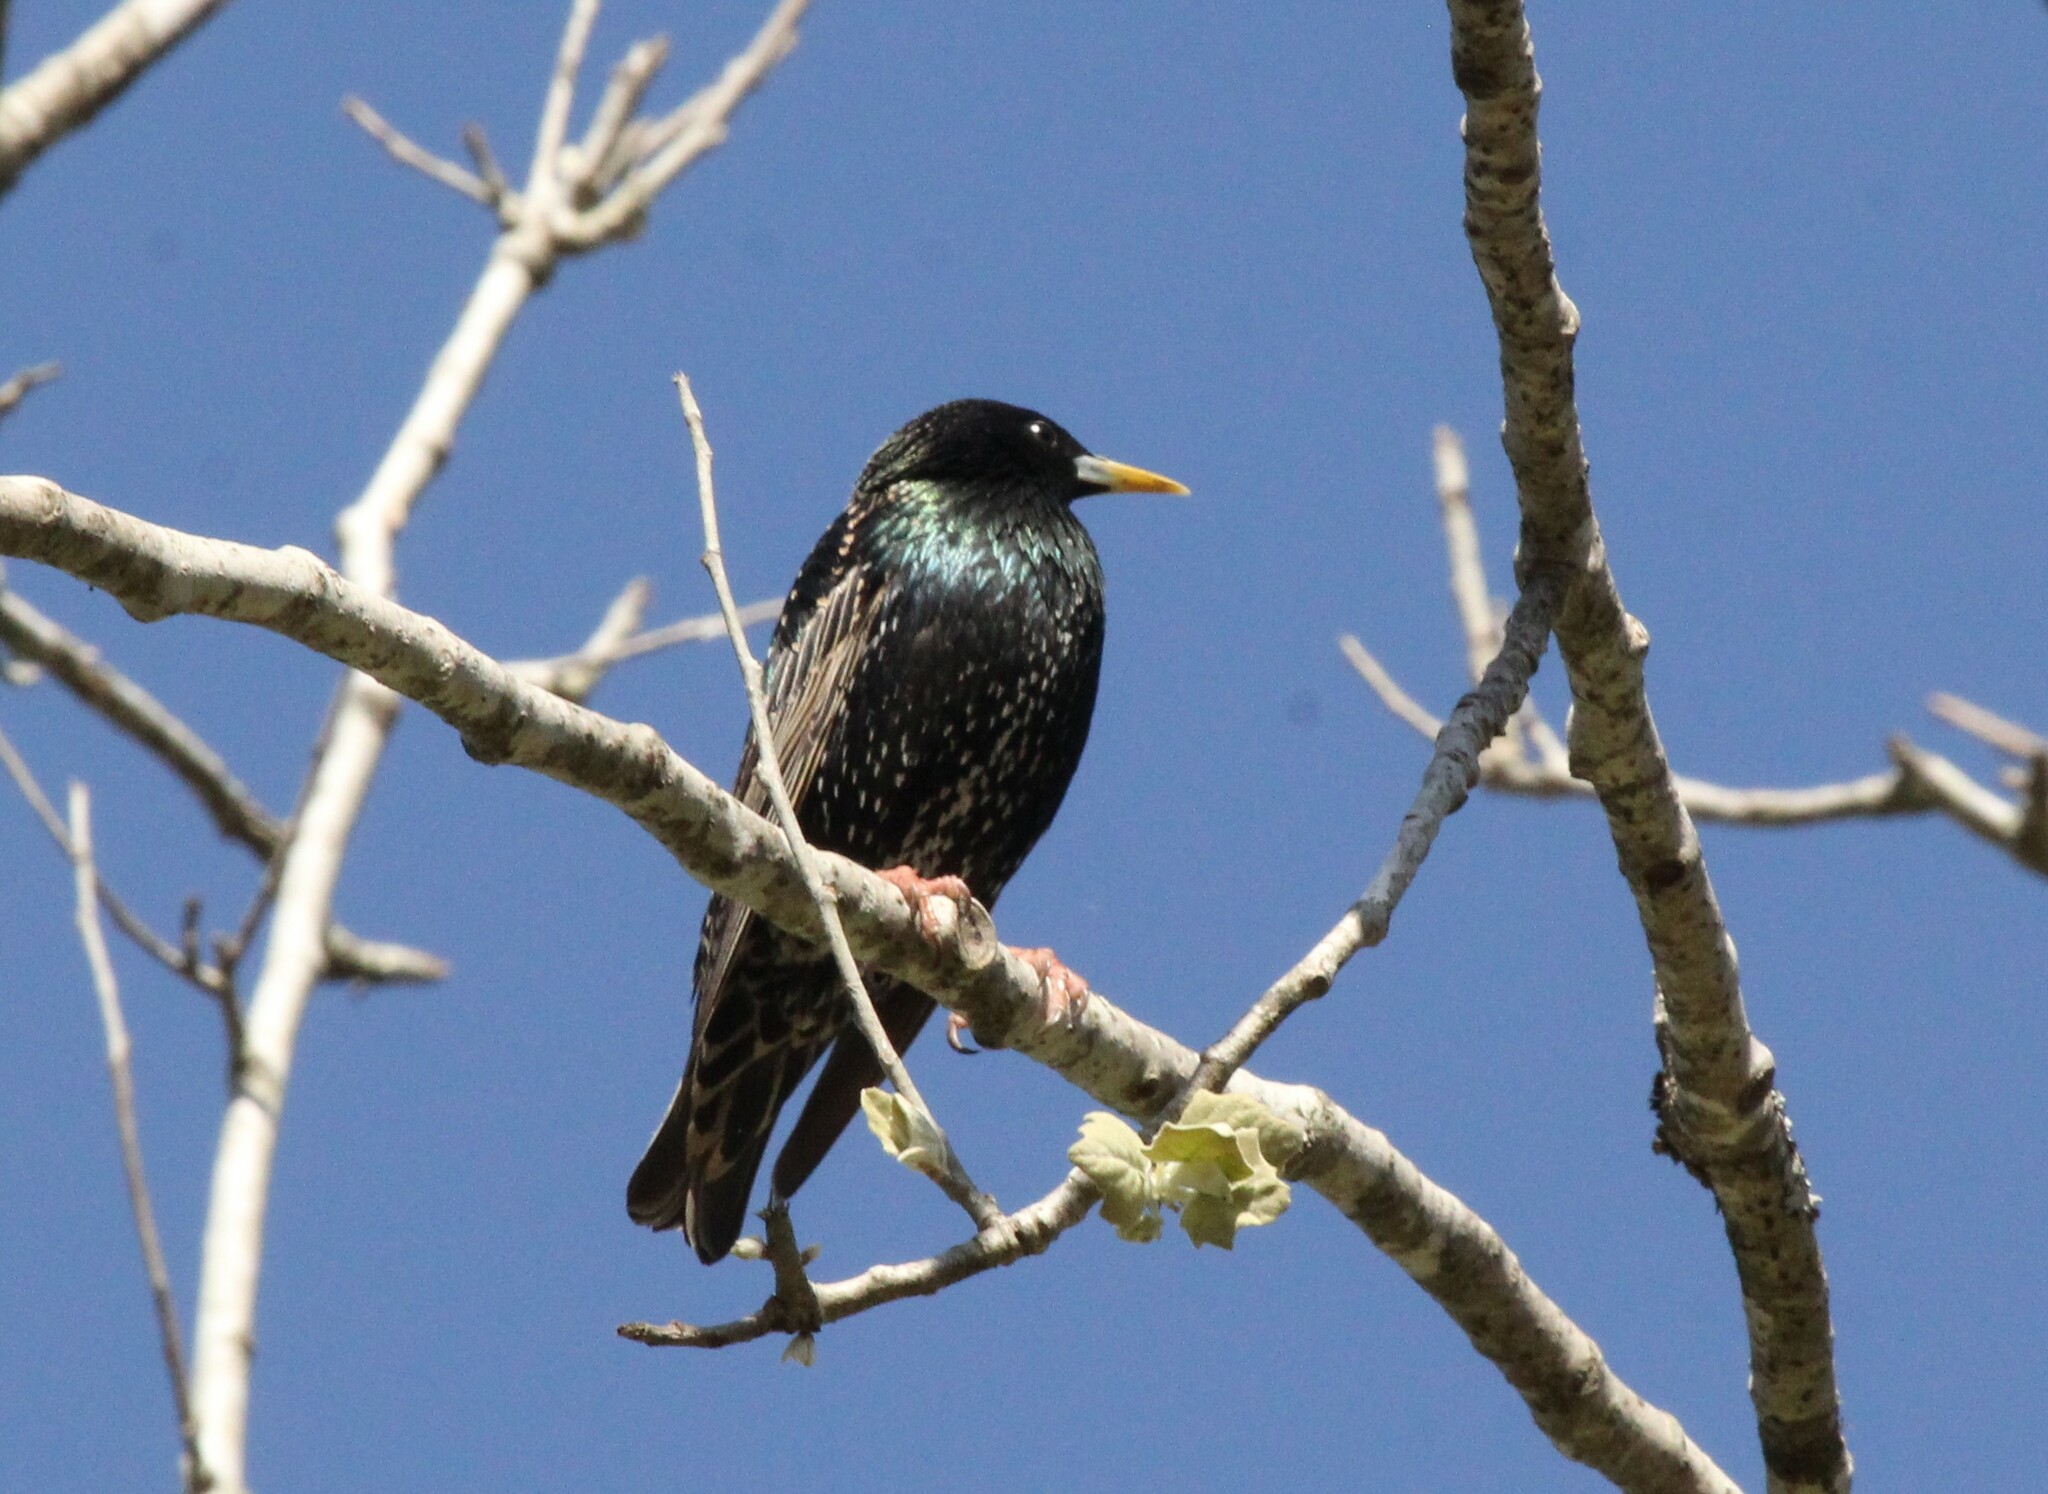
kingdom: Animalia
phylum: Chordata
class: Aves
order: Passeriformes
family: Sturnidae
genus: Sturnus
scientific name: Sturnus vulgaris
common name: Common starling
